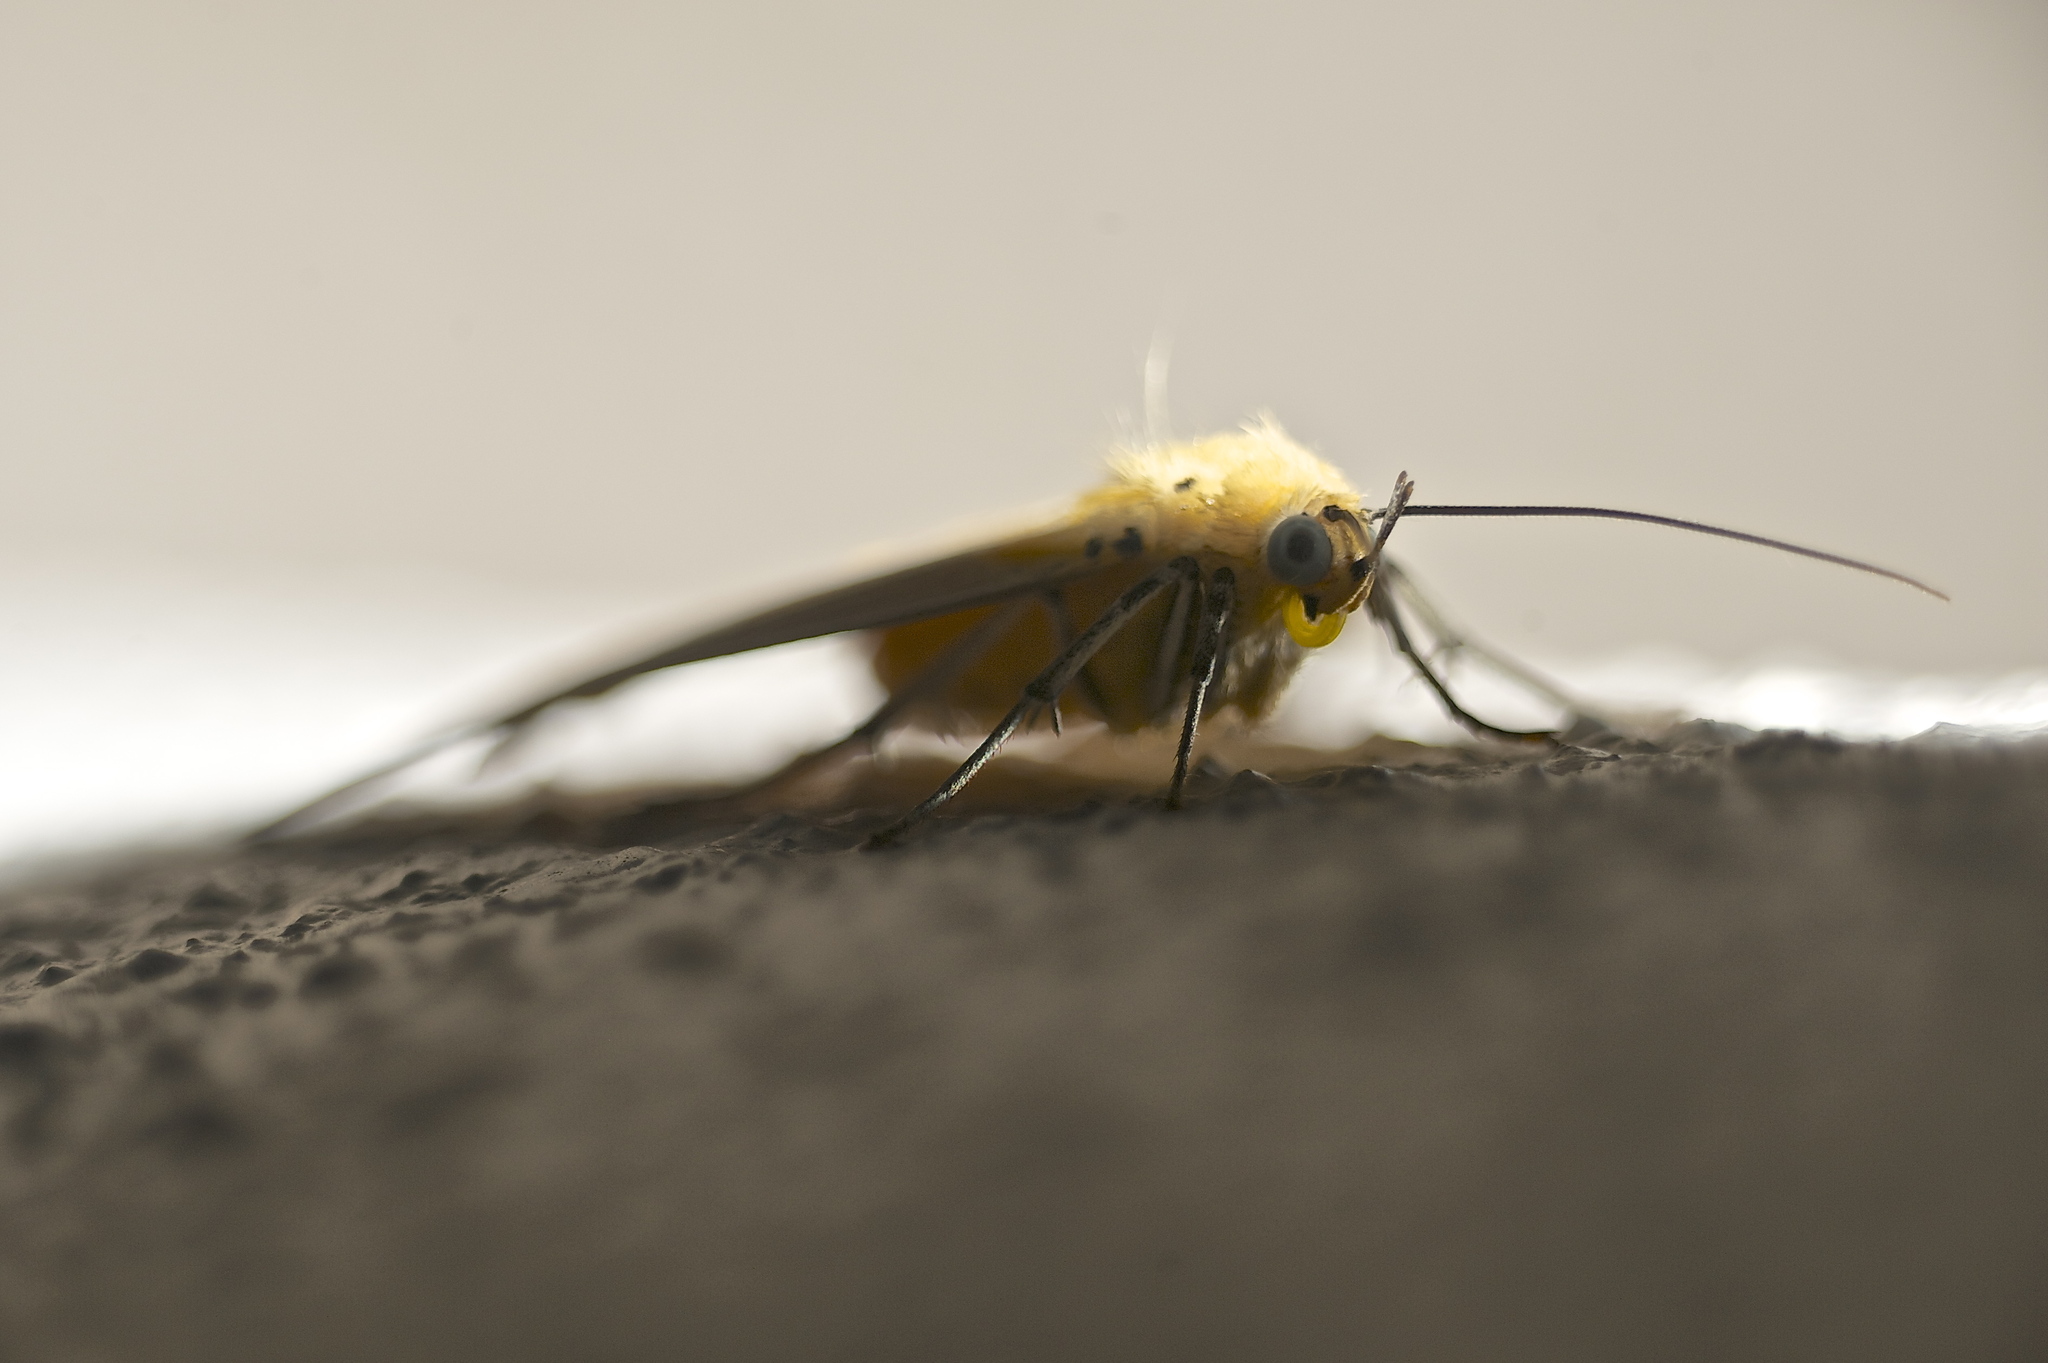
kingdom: Animalia
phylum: Arthropoda
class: Insecta
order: Lepidoptera
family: Erebidae
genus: Asota
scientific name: Asota plaginota
